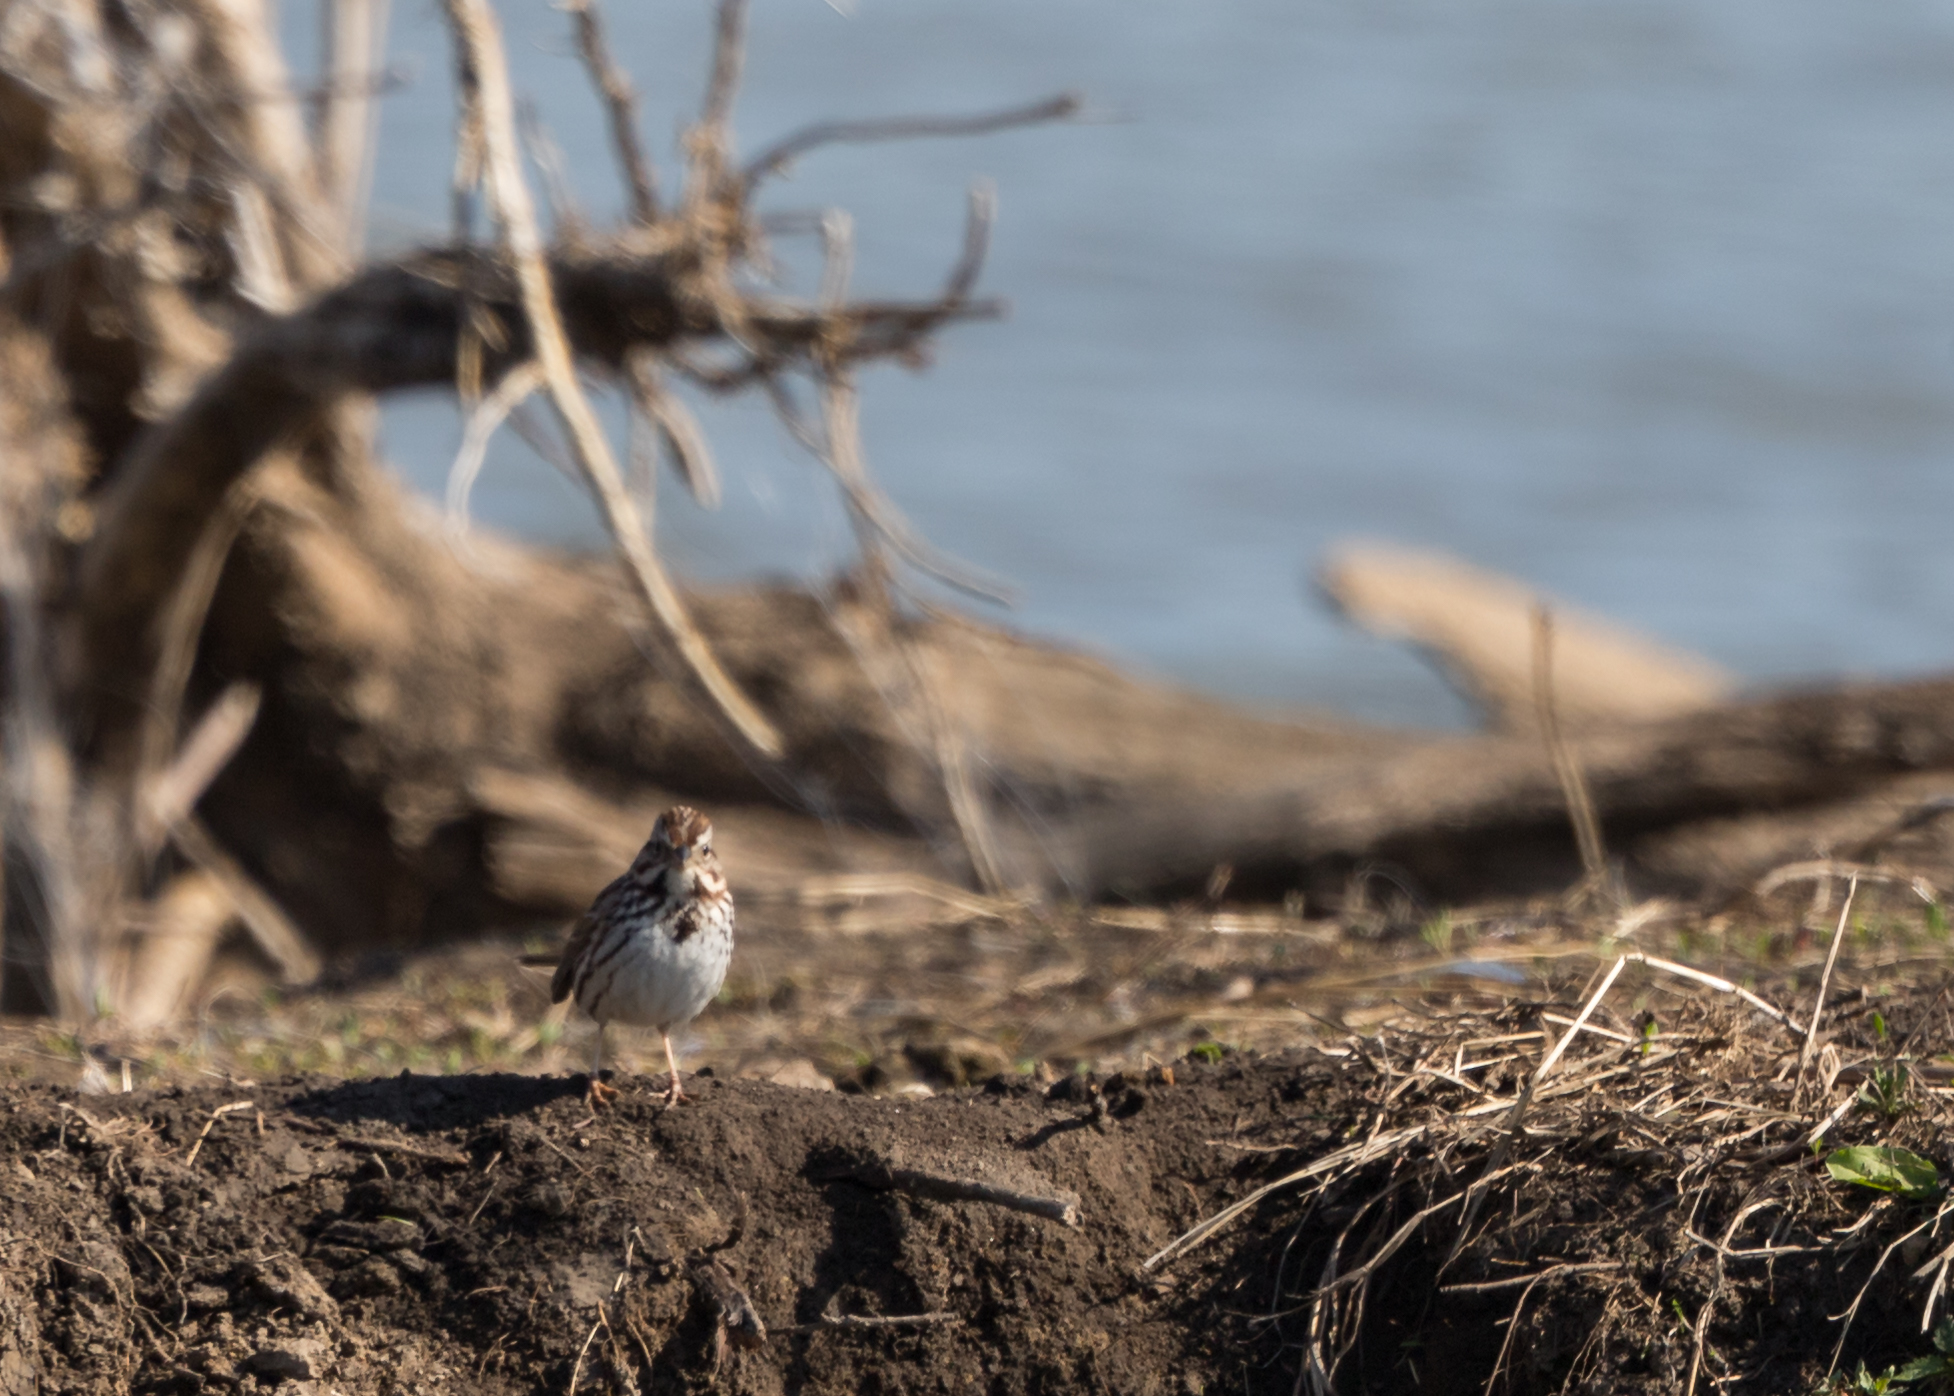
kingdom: Animalia
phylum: Chordata
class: Aves
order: Passeriformes
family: Passerellidae
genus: Passerculus
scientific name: Passerculus sandwichensis
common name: Savannah sparrow
